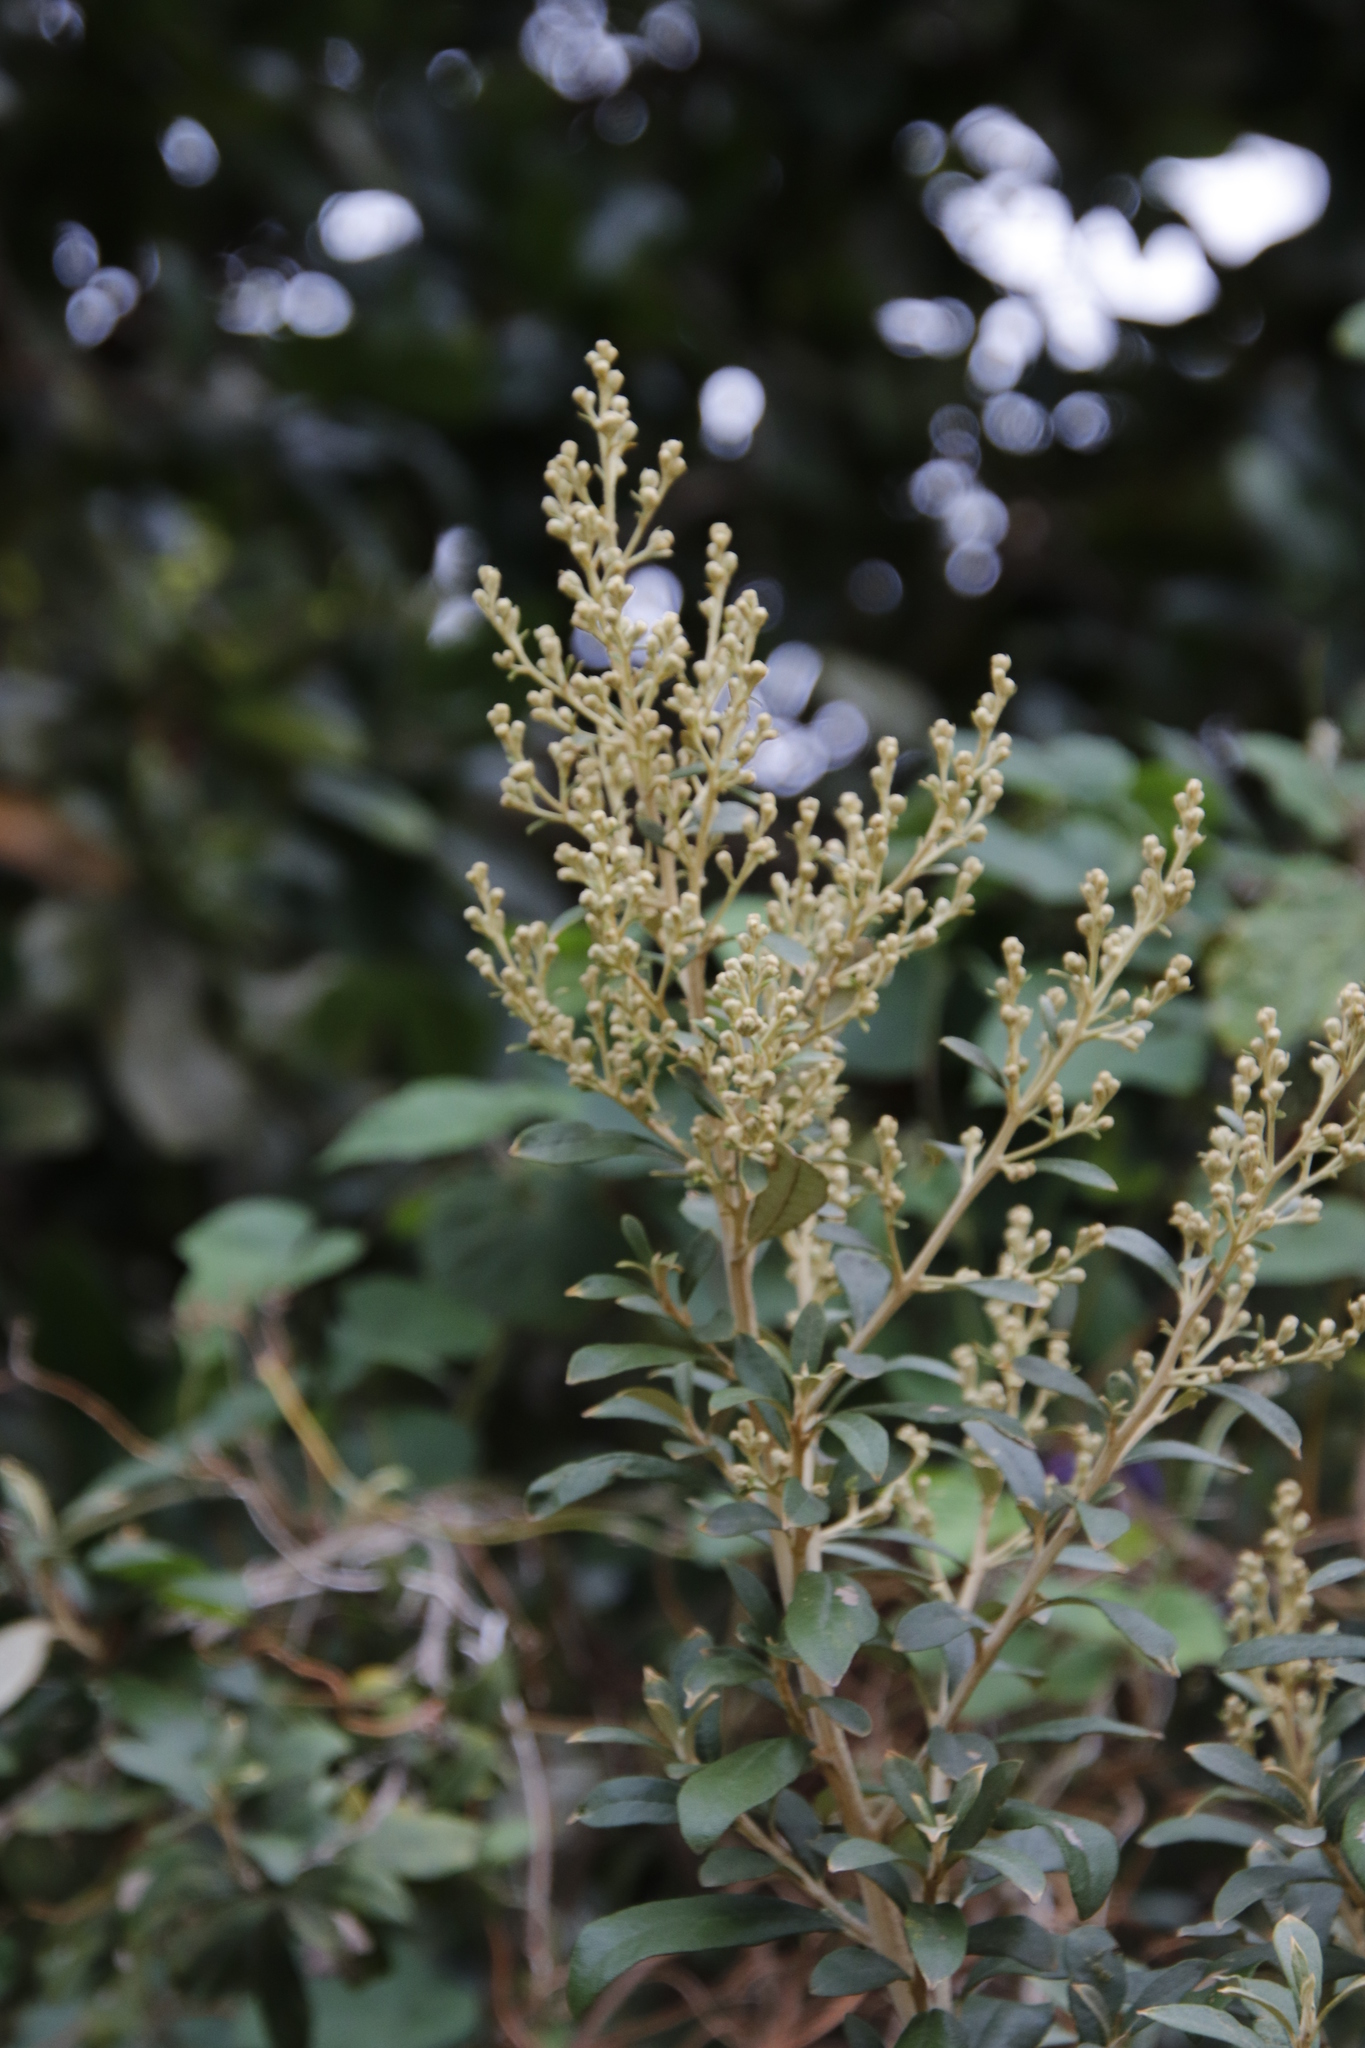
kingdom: Plantae
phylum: Tracheophyta
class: Magnoliopsida
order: Asterales
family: Asteraceae
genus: Tarchonanthus
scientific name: Tarchonanthus littoralis
